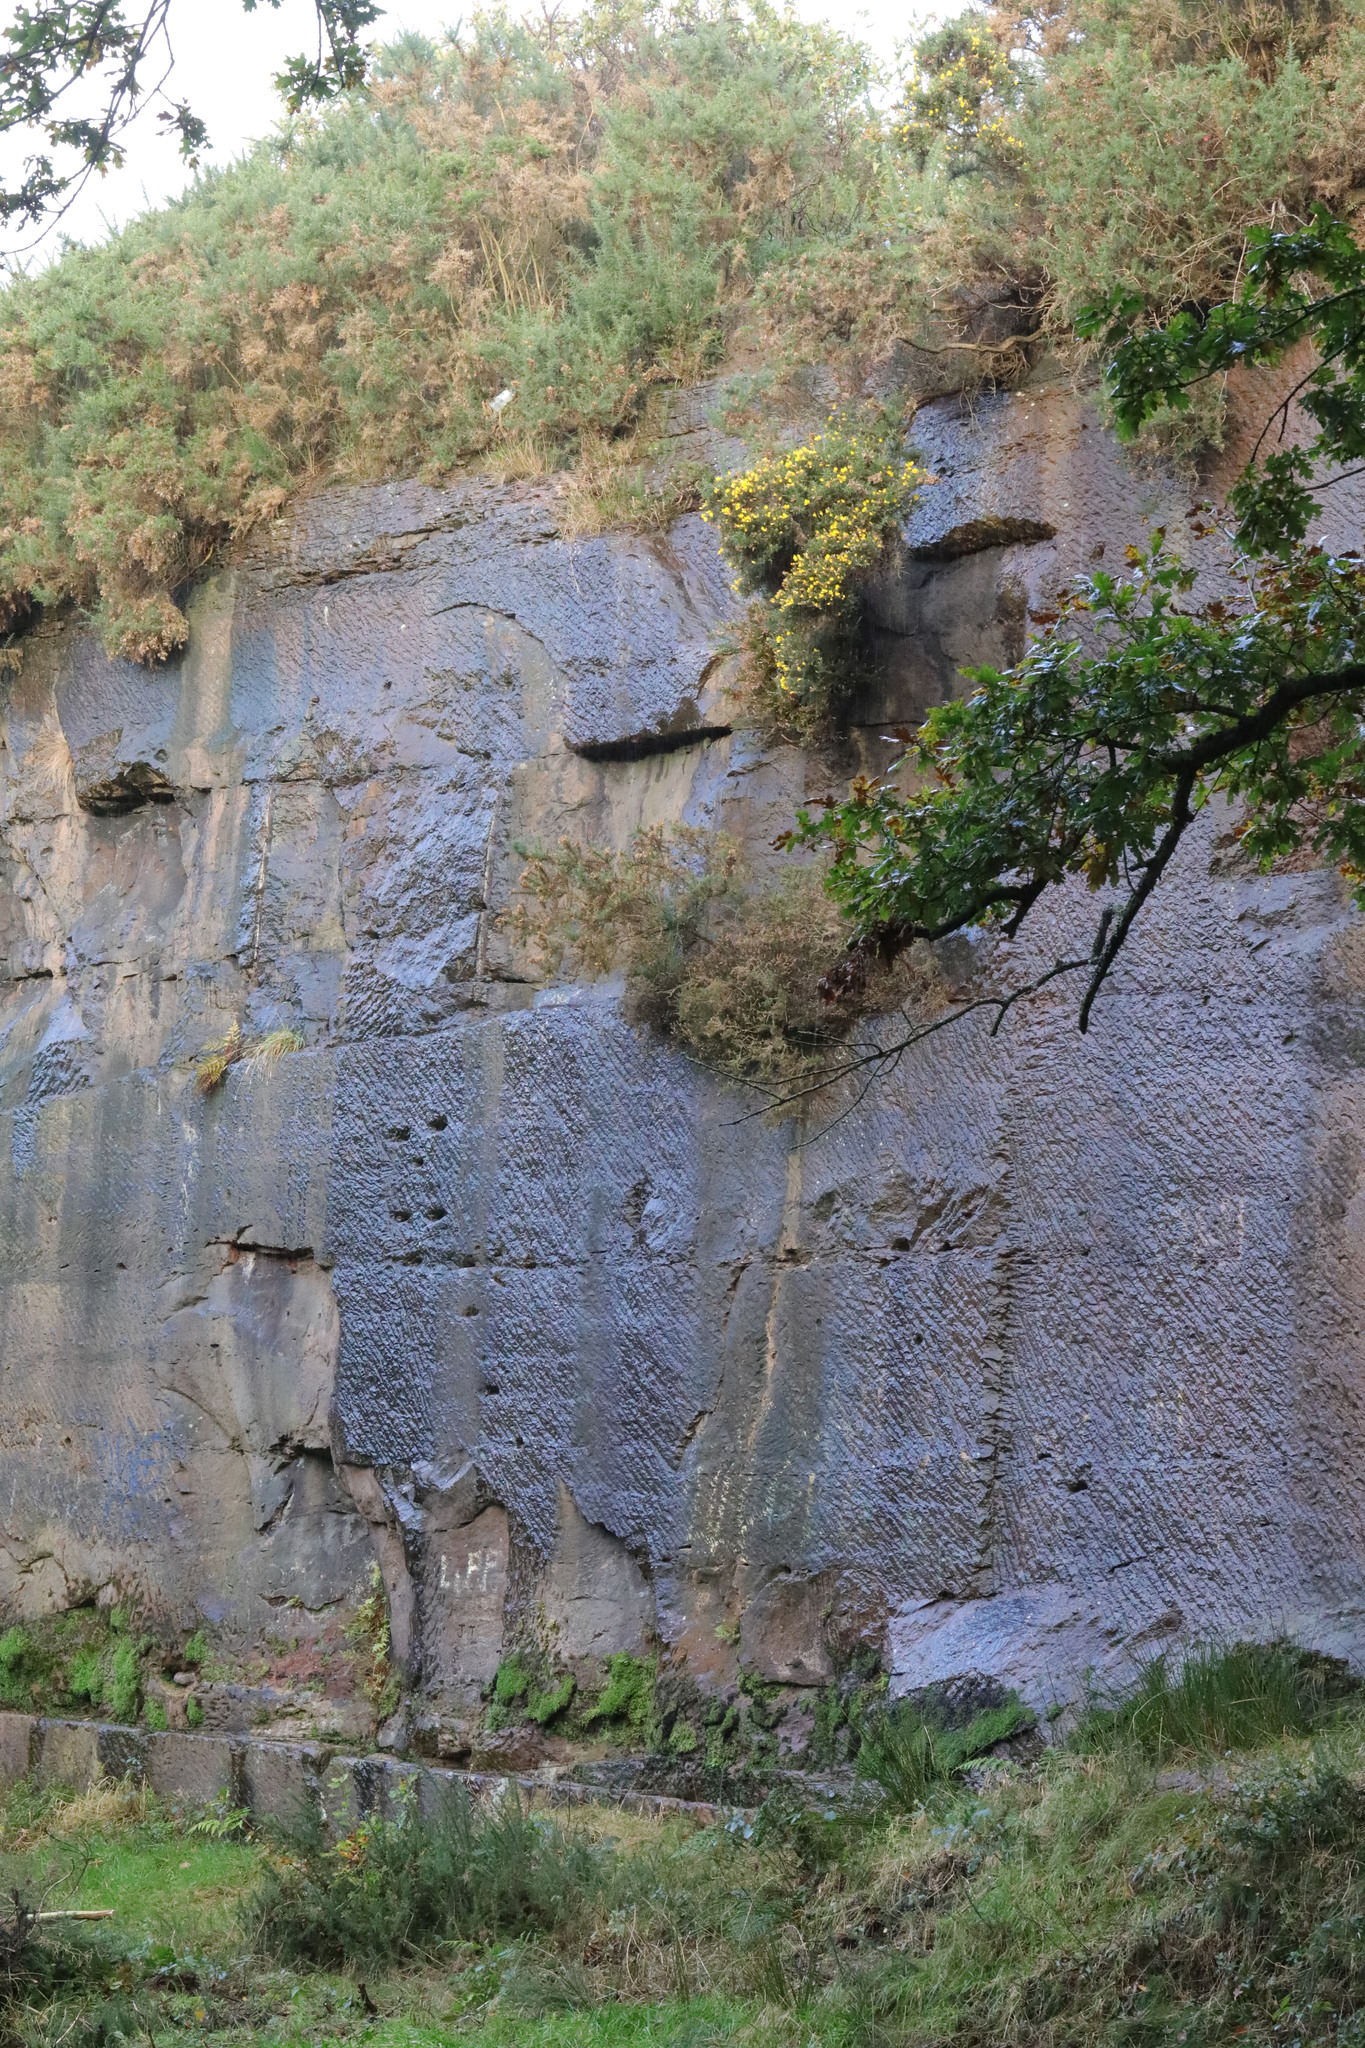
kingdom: Plantae
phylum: Tracheophyta
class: Magnoliopsida
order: Fabales
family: Fabaceae
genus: Ulex
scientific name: Ulex europaeus
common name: Common gorse
